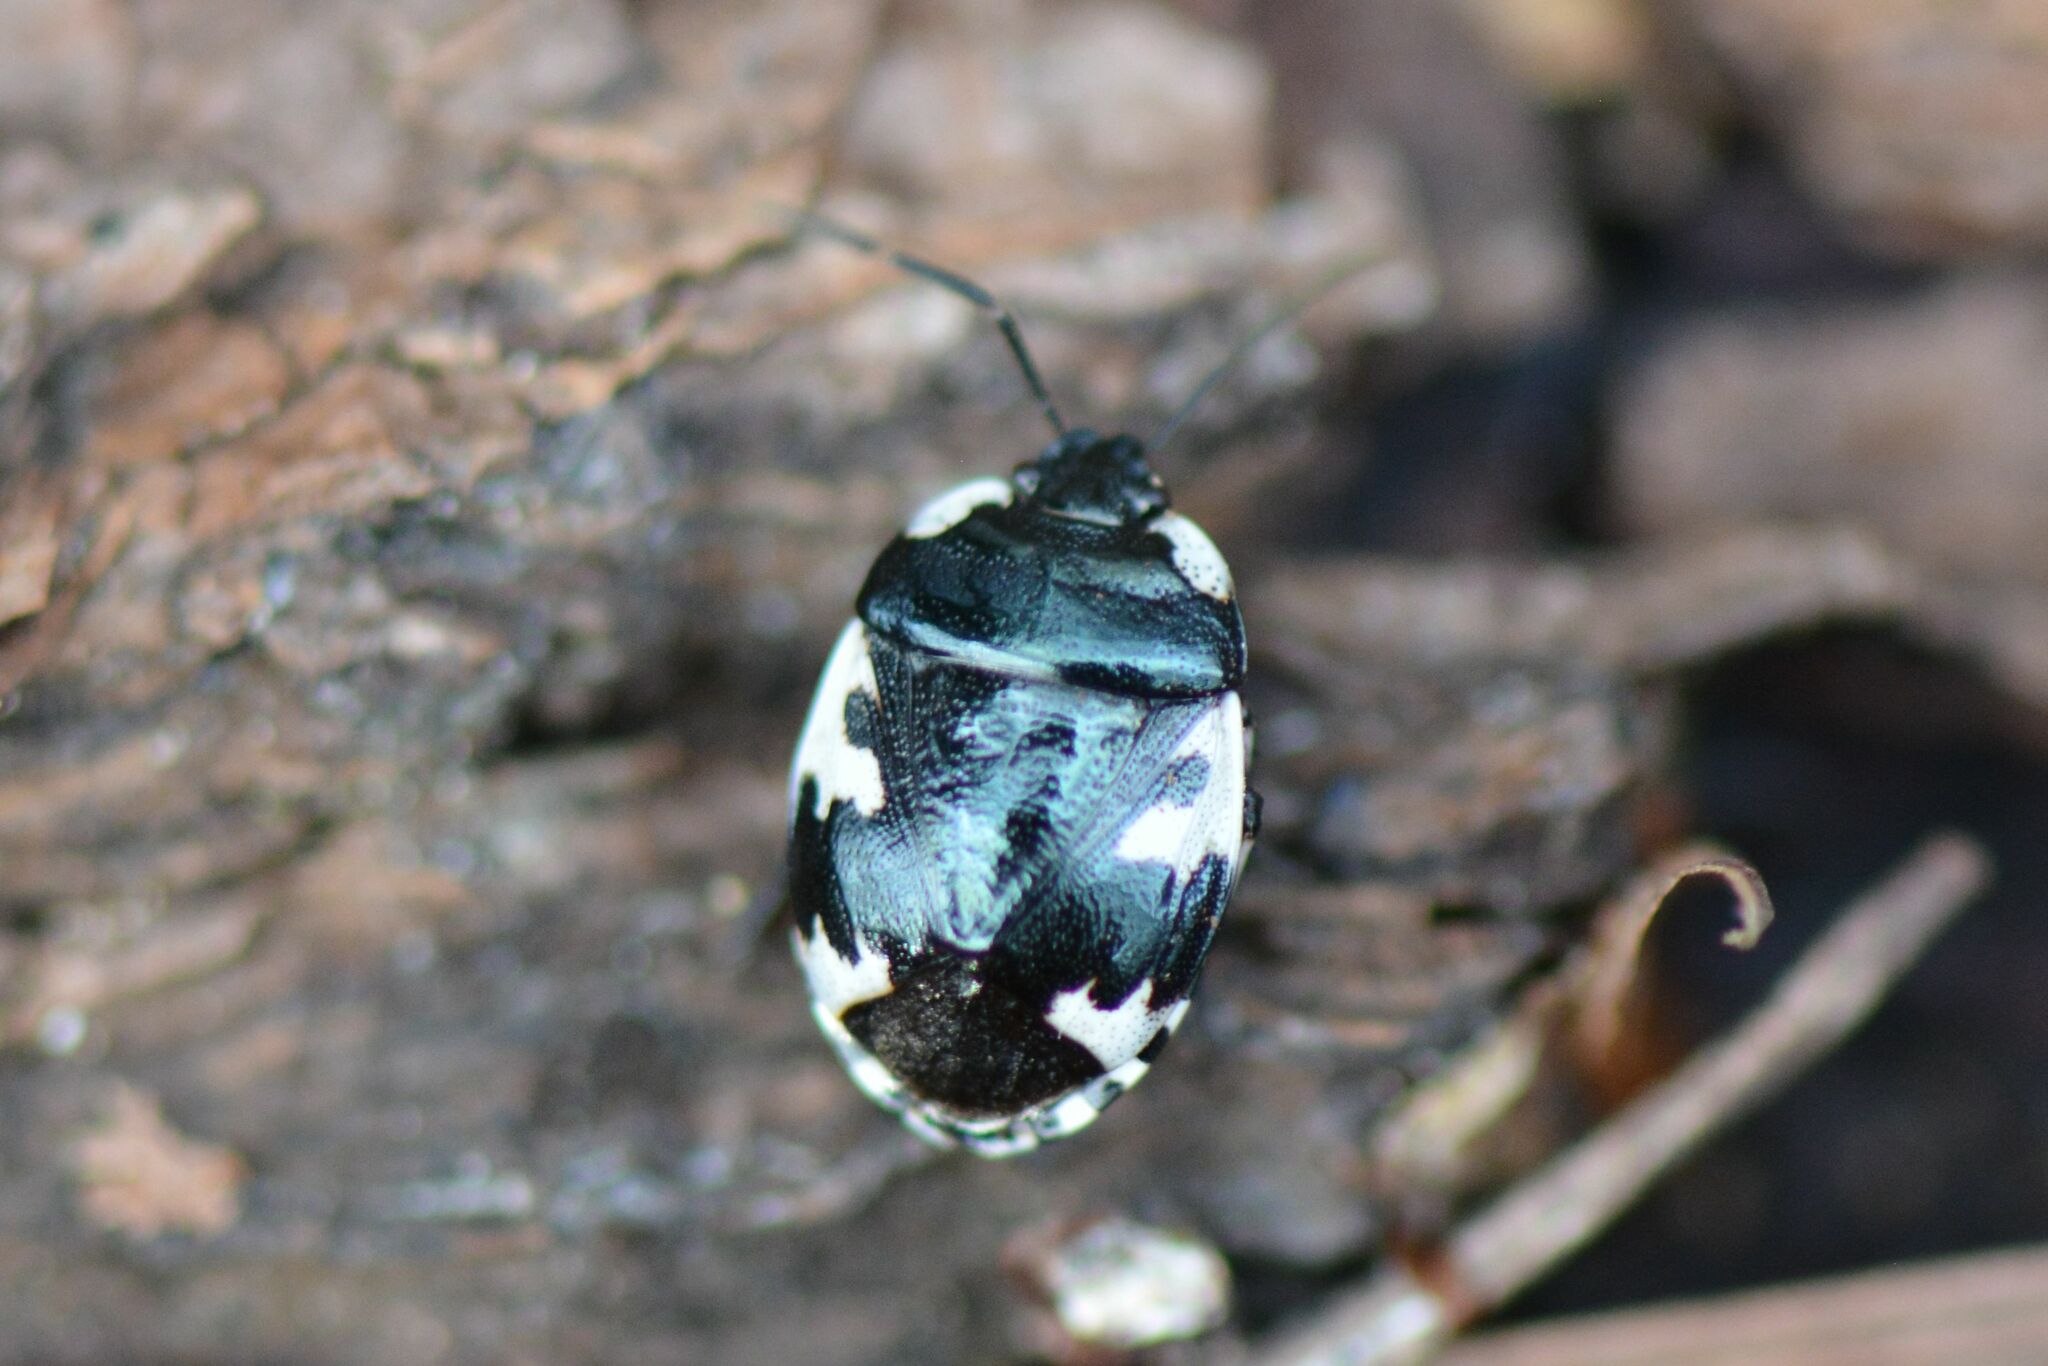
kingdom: Animalia
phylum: Arthropoda
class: Insecta
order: Hemiptera
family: Cydnidae
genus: Tritomegas
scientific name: Tritomegas rotundipennis
